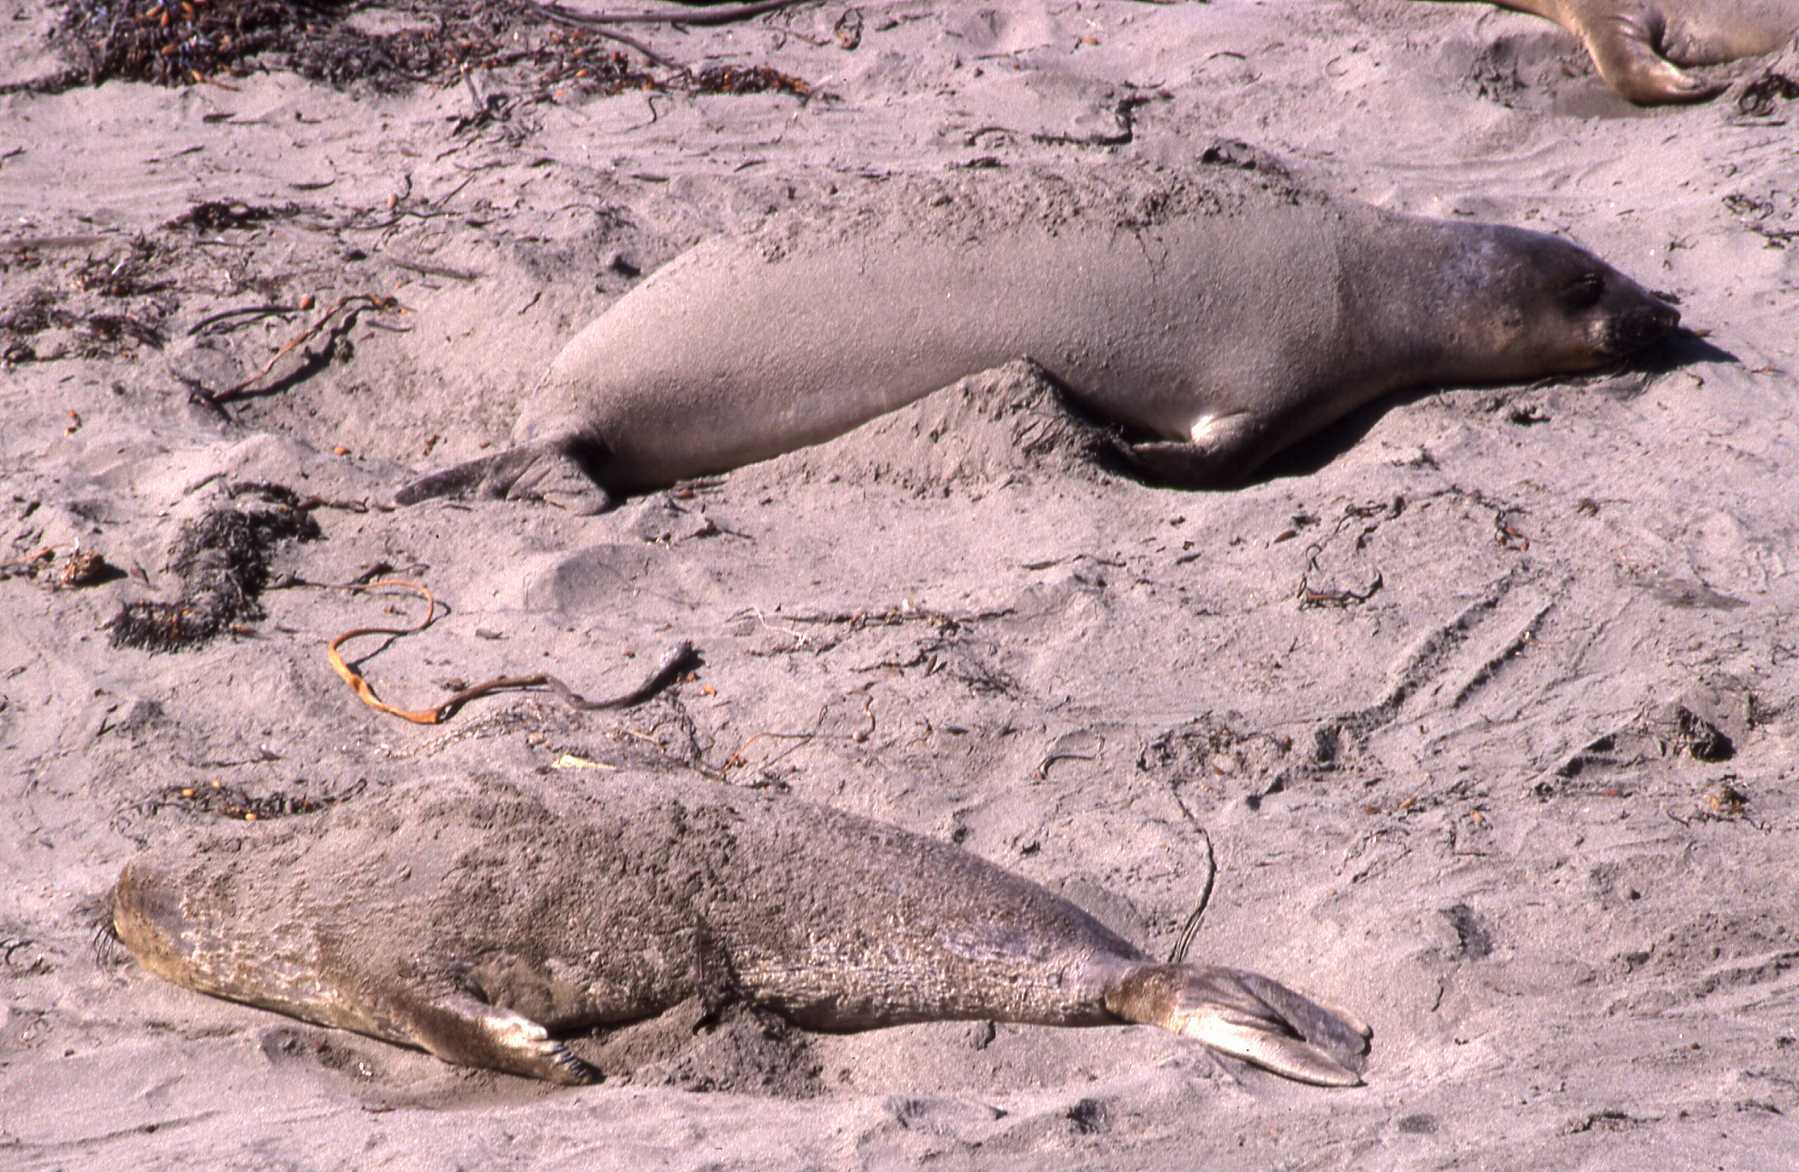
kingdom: Animalia
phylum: Chordata
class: Mammalia
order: Carnivora
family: Phocidae
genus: Mirounga
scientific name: Mirounga angustirostris
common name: Northern elephant seal
